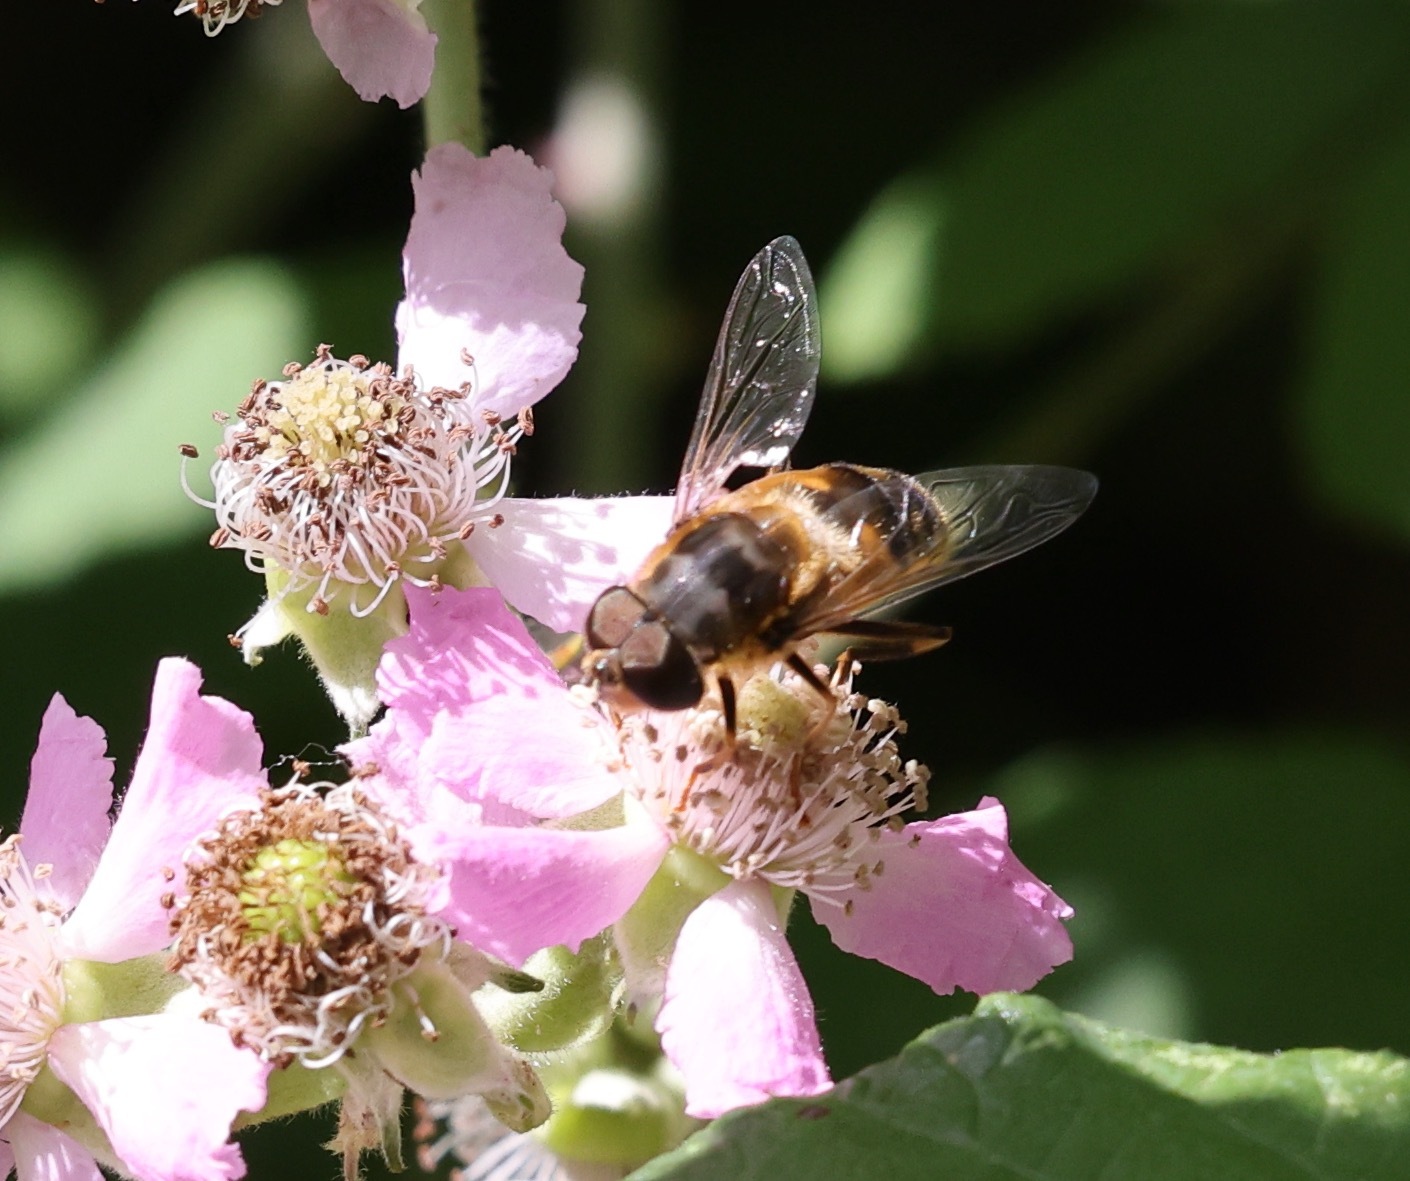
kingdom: Animalia
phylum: Arthropoda
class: Insecta
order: Diptera
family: Syrphidae
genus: Eristalis
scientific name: Eristalis pertinax
